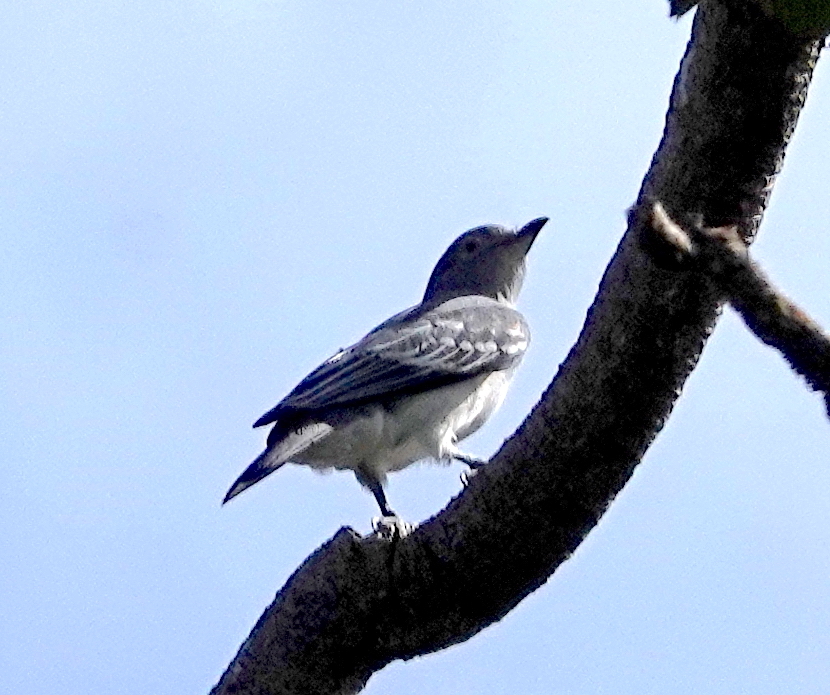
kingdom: Animalia
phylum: Chordata
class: Aves
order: Passeriformes
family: Cotingidae
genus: Carpodectes
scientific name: Carpodectes hopkei
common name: Black-tipped cotinga
